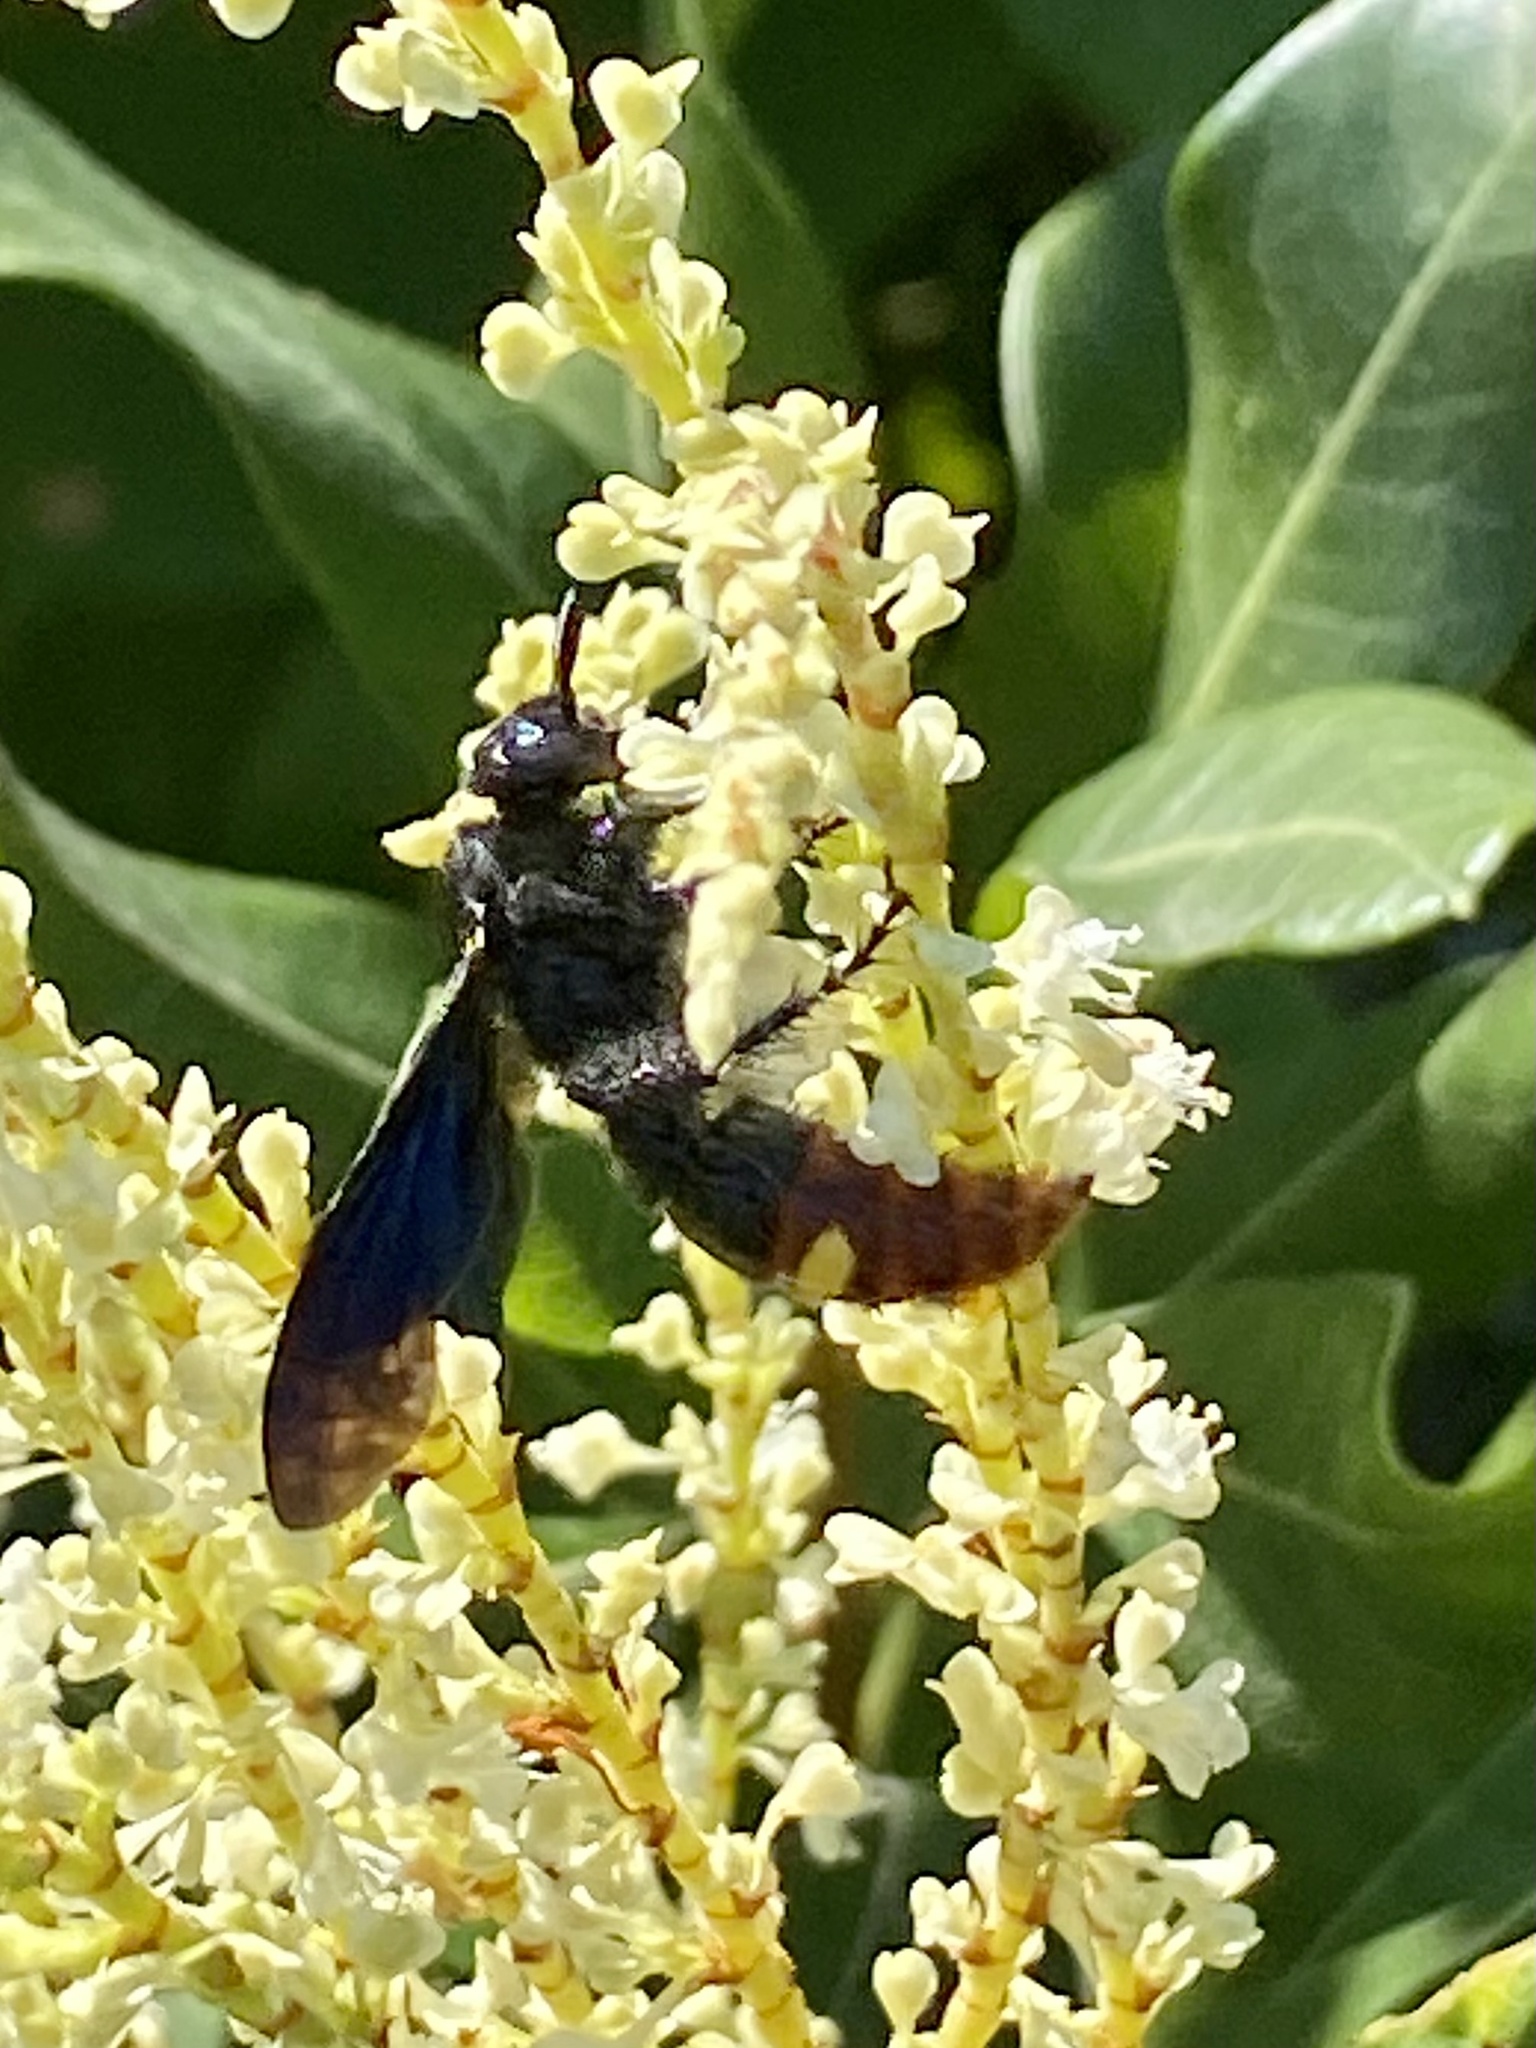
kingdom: Animalia
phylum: Arthropoda
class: Insecta
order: Hymenoptera
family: Scoliidae
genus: Scolia
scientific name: Scolia dubia
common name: Blue-winged scoliid wasp
